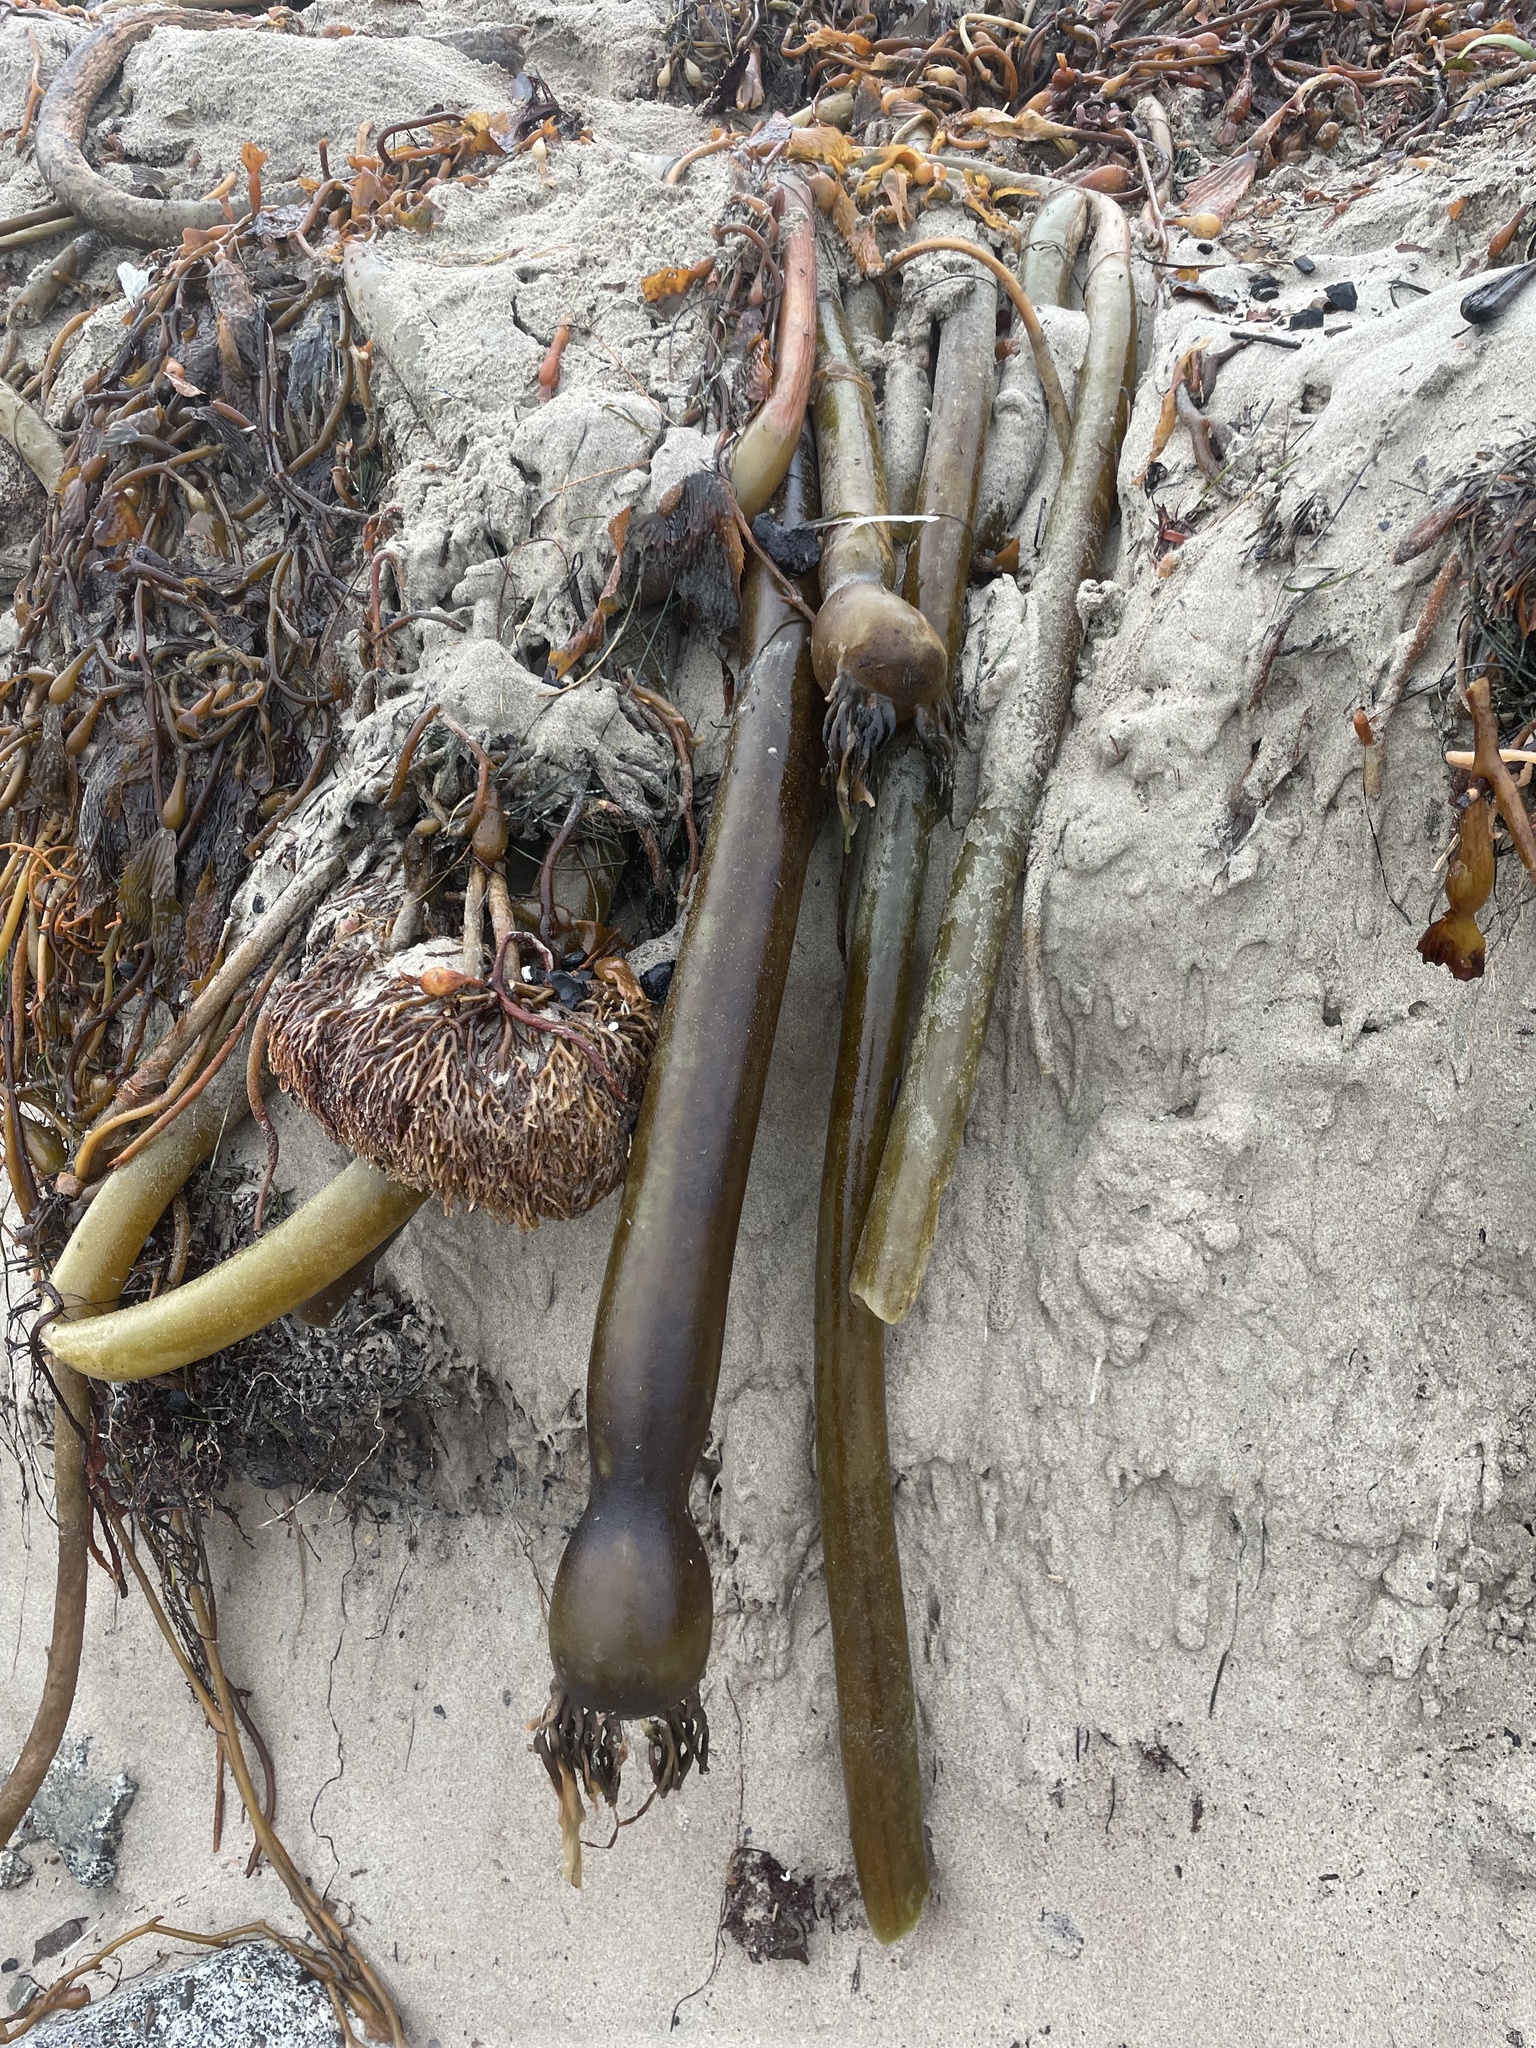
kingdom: Chromista
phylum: Ochrophyta
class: Phaeophyceae
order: Laminariales
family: Laminariaceae
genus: Nereocystis
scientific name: Nereocystis luetkeana
